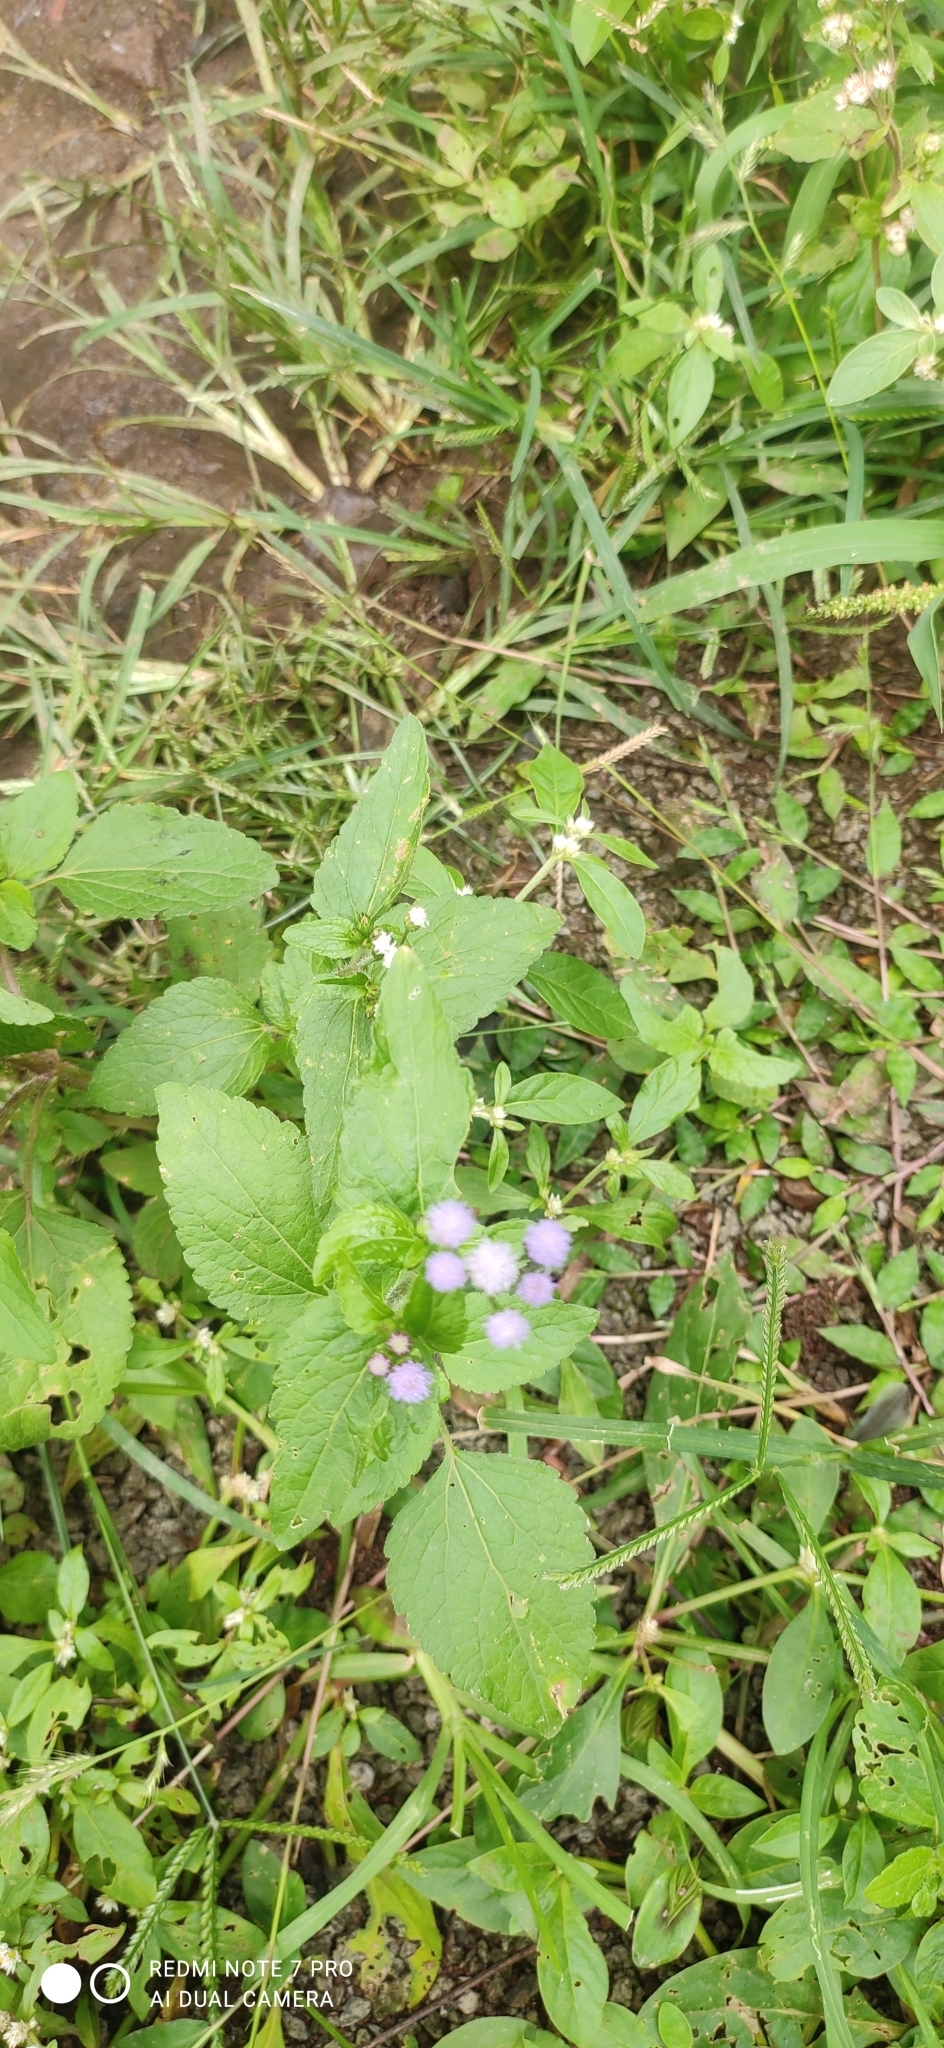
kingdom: Plantae
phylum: Tracheophyta
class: Magnoliopsida
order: Asterales
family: Asteraceae
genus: Ageratum
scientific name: Ageratum conyzoides
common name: Tropical whiteweed
